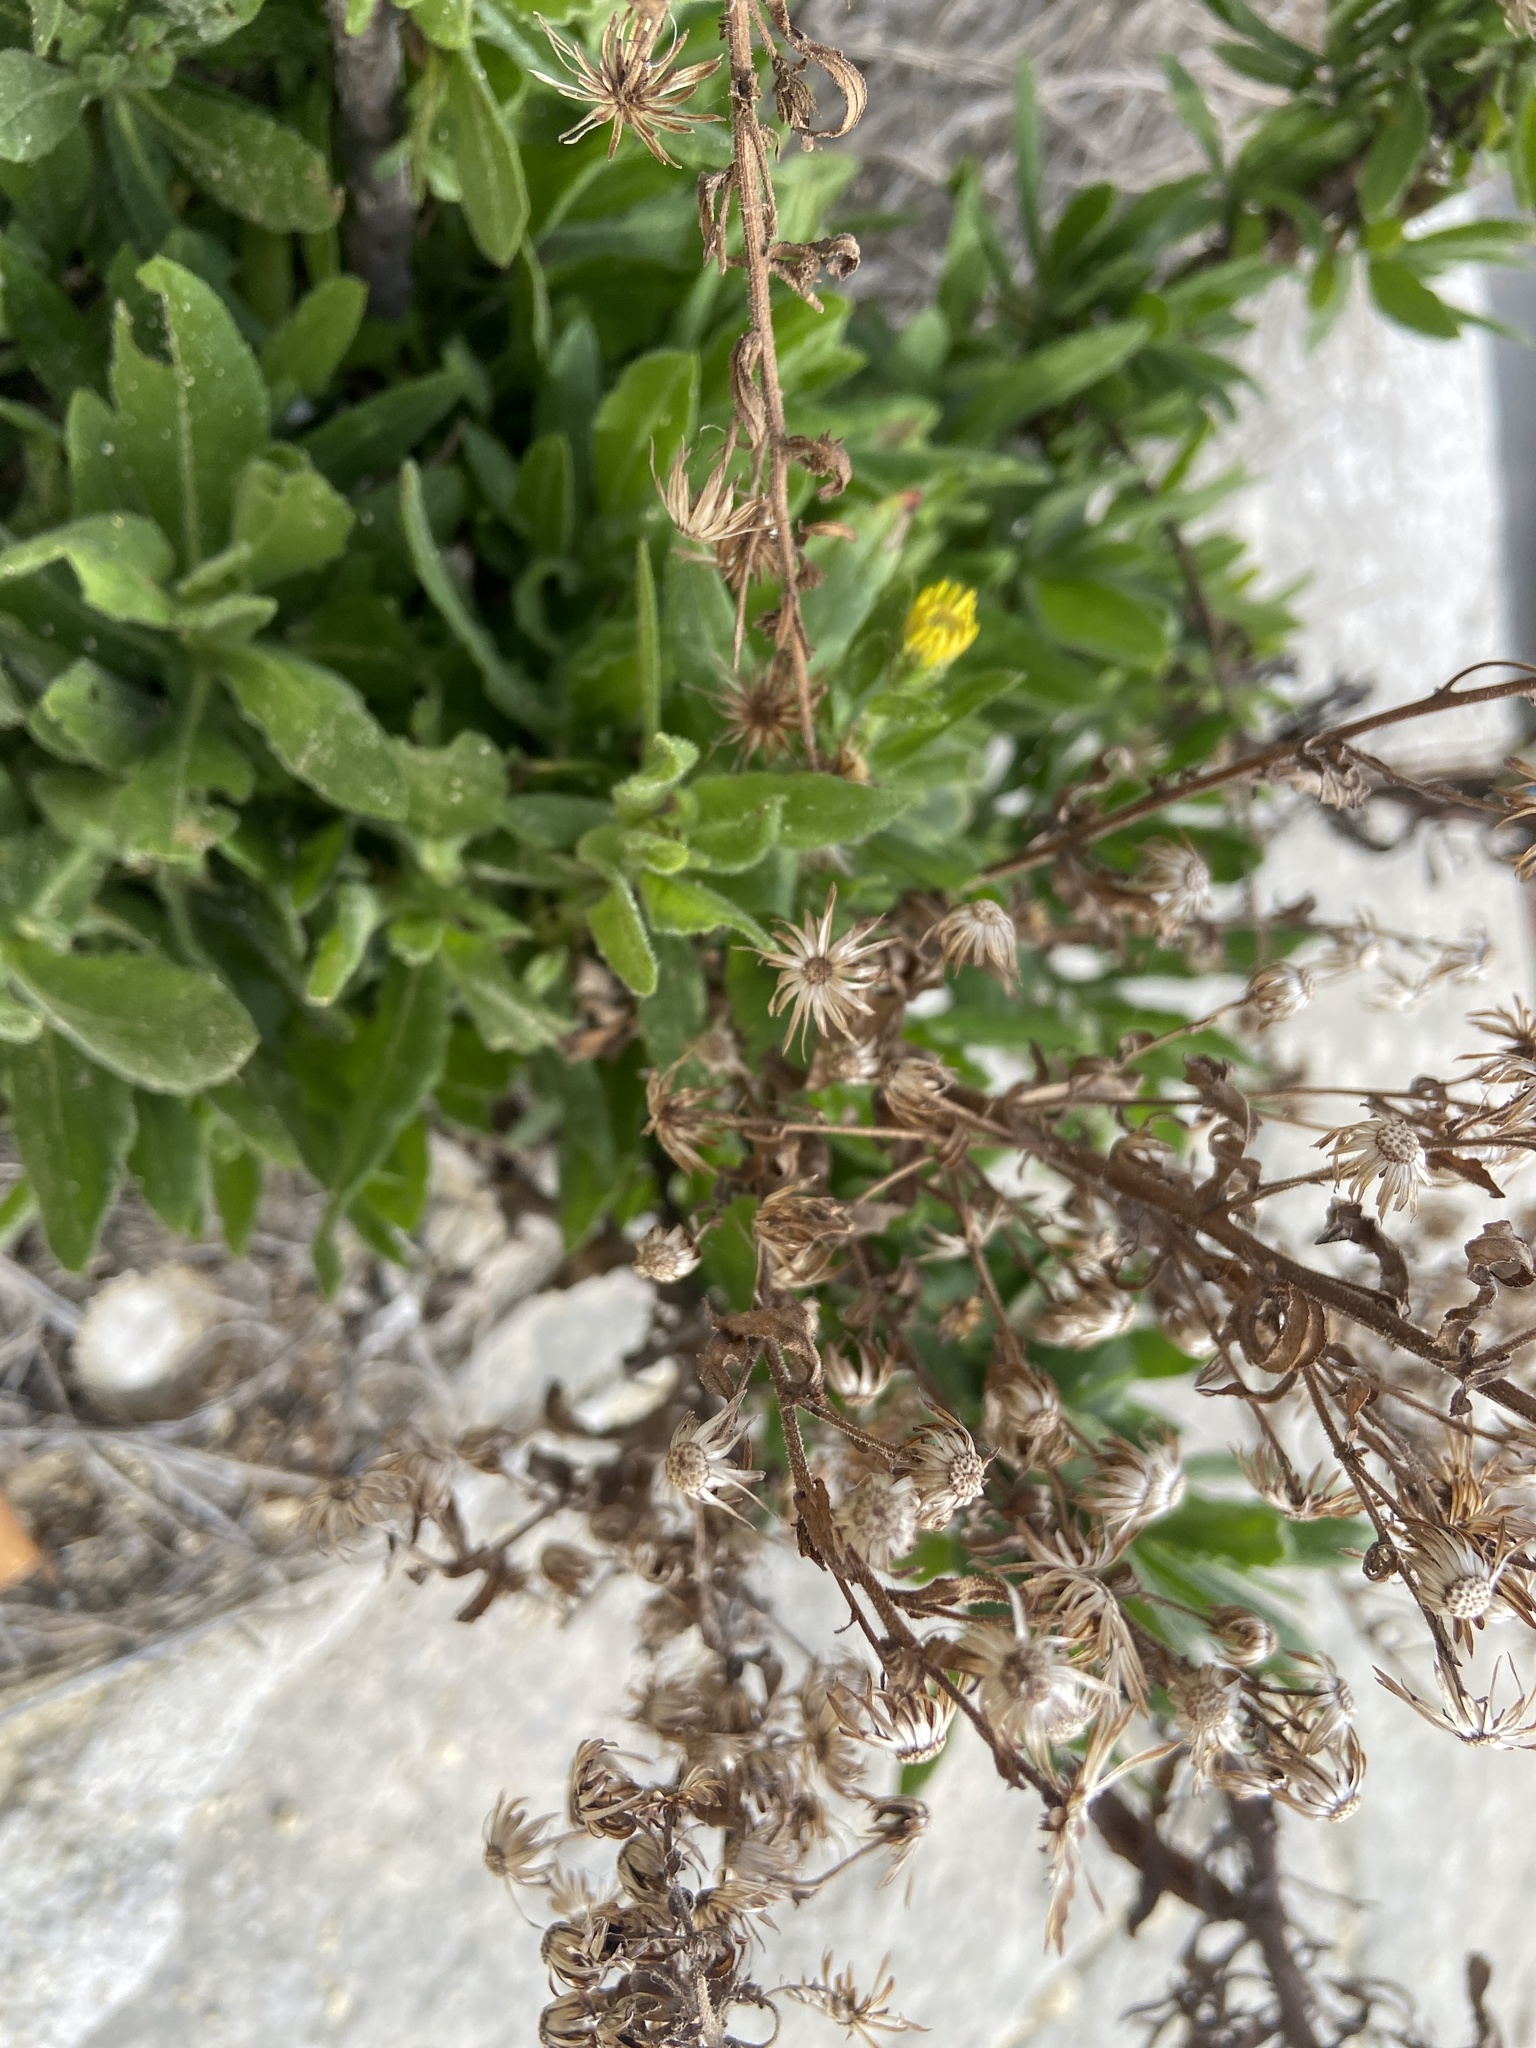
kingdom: Plantae
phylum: Tracheophyta
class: Magnoliopsida
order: Asterales
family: Asteraceae
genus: Dittrichia
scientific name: Dittrichia viscosa
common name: Woody fleabane
